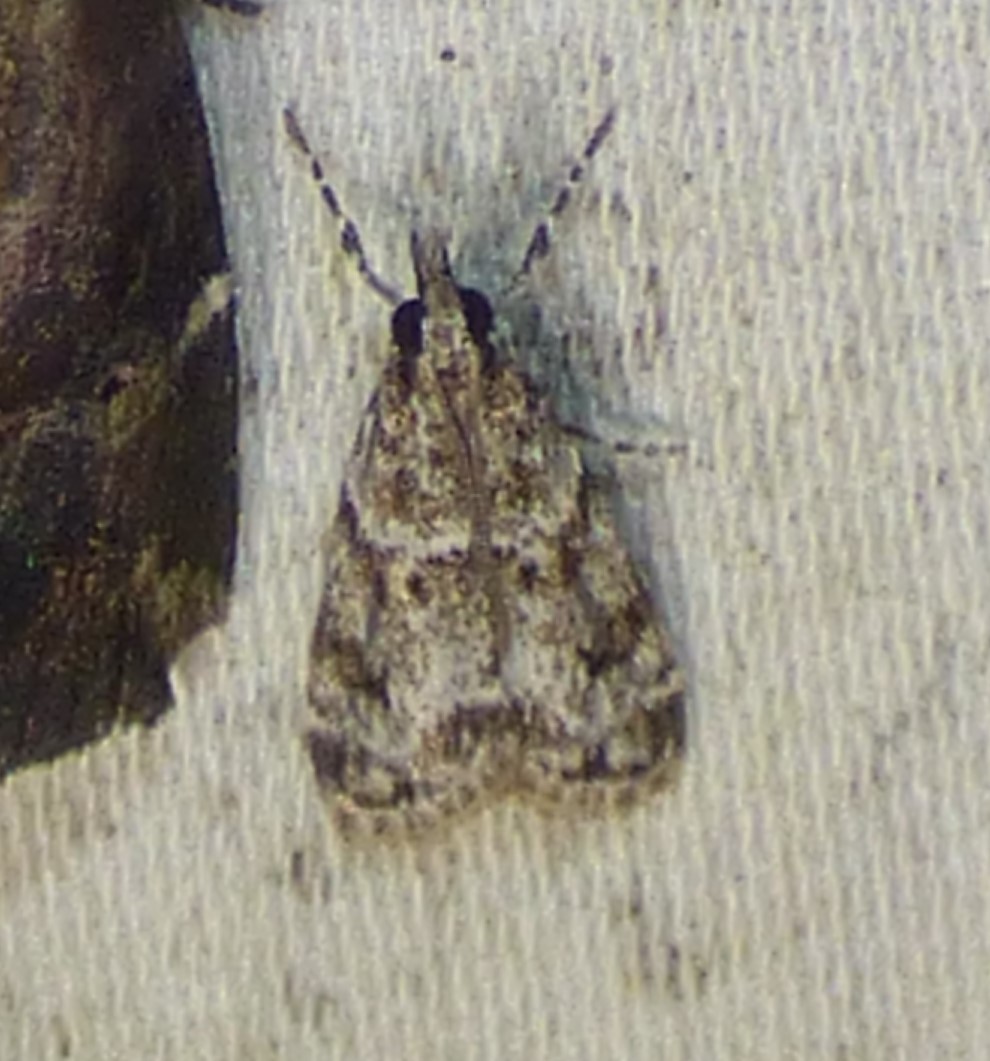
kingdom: Animalia
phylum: Arthropoda
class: Insecta
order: Lepidoptera
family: Crambidae
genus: Eudonia
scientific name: Eudonia heterosalis
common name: Mcdunnough's eudonia
